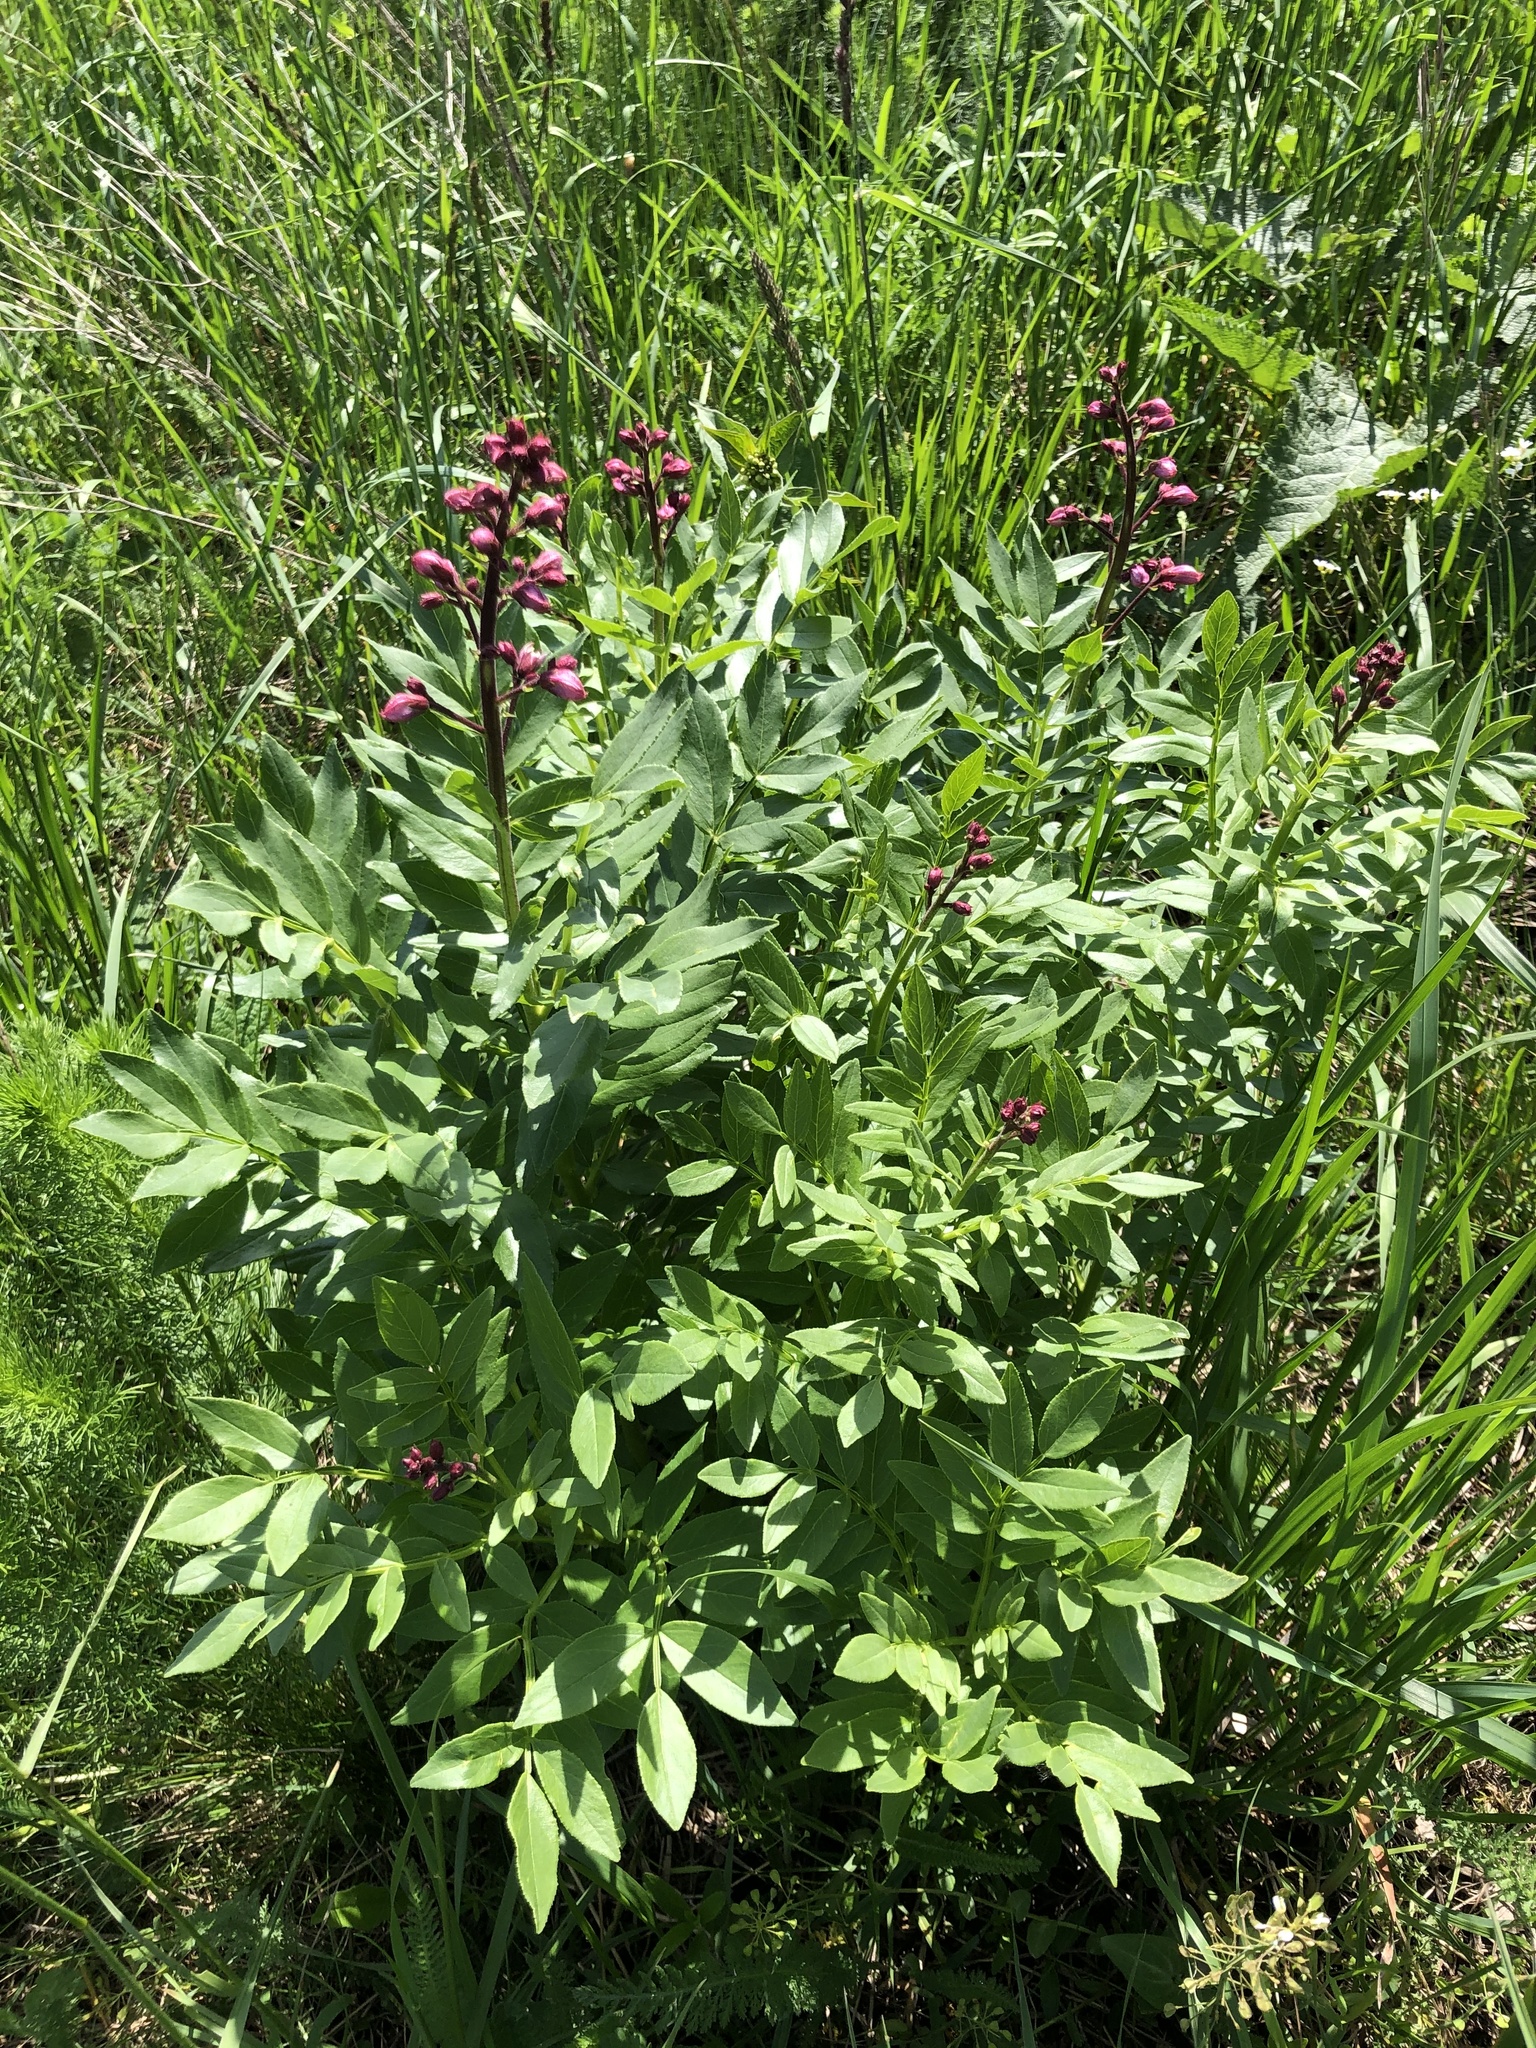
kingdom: Plantae
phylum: Tracheophyta
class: Magnoliopsida
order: Sapindales
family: Rutaceae
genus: Dictamnus
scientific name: Dictamnus albus
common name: Gasplant
